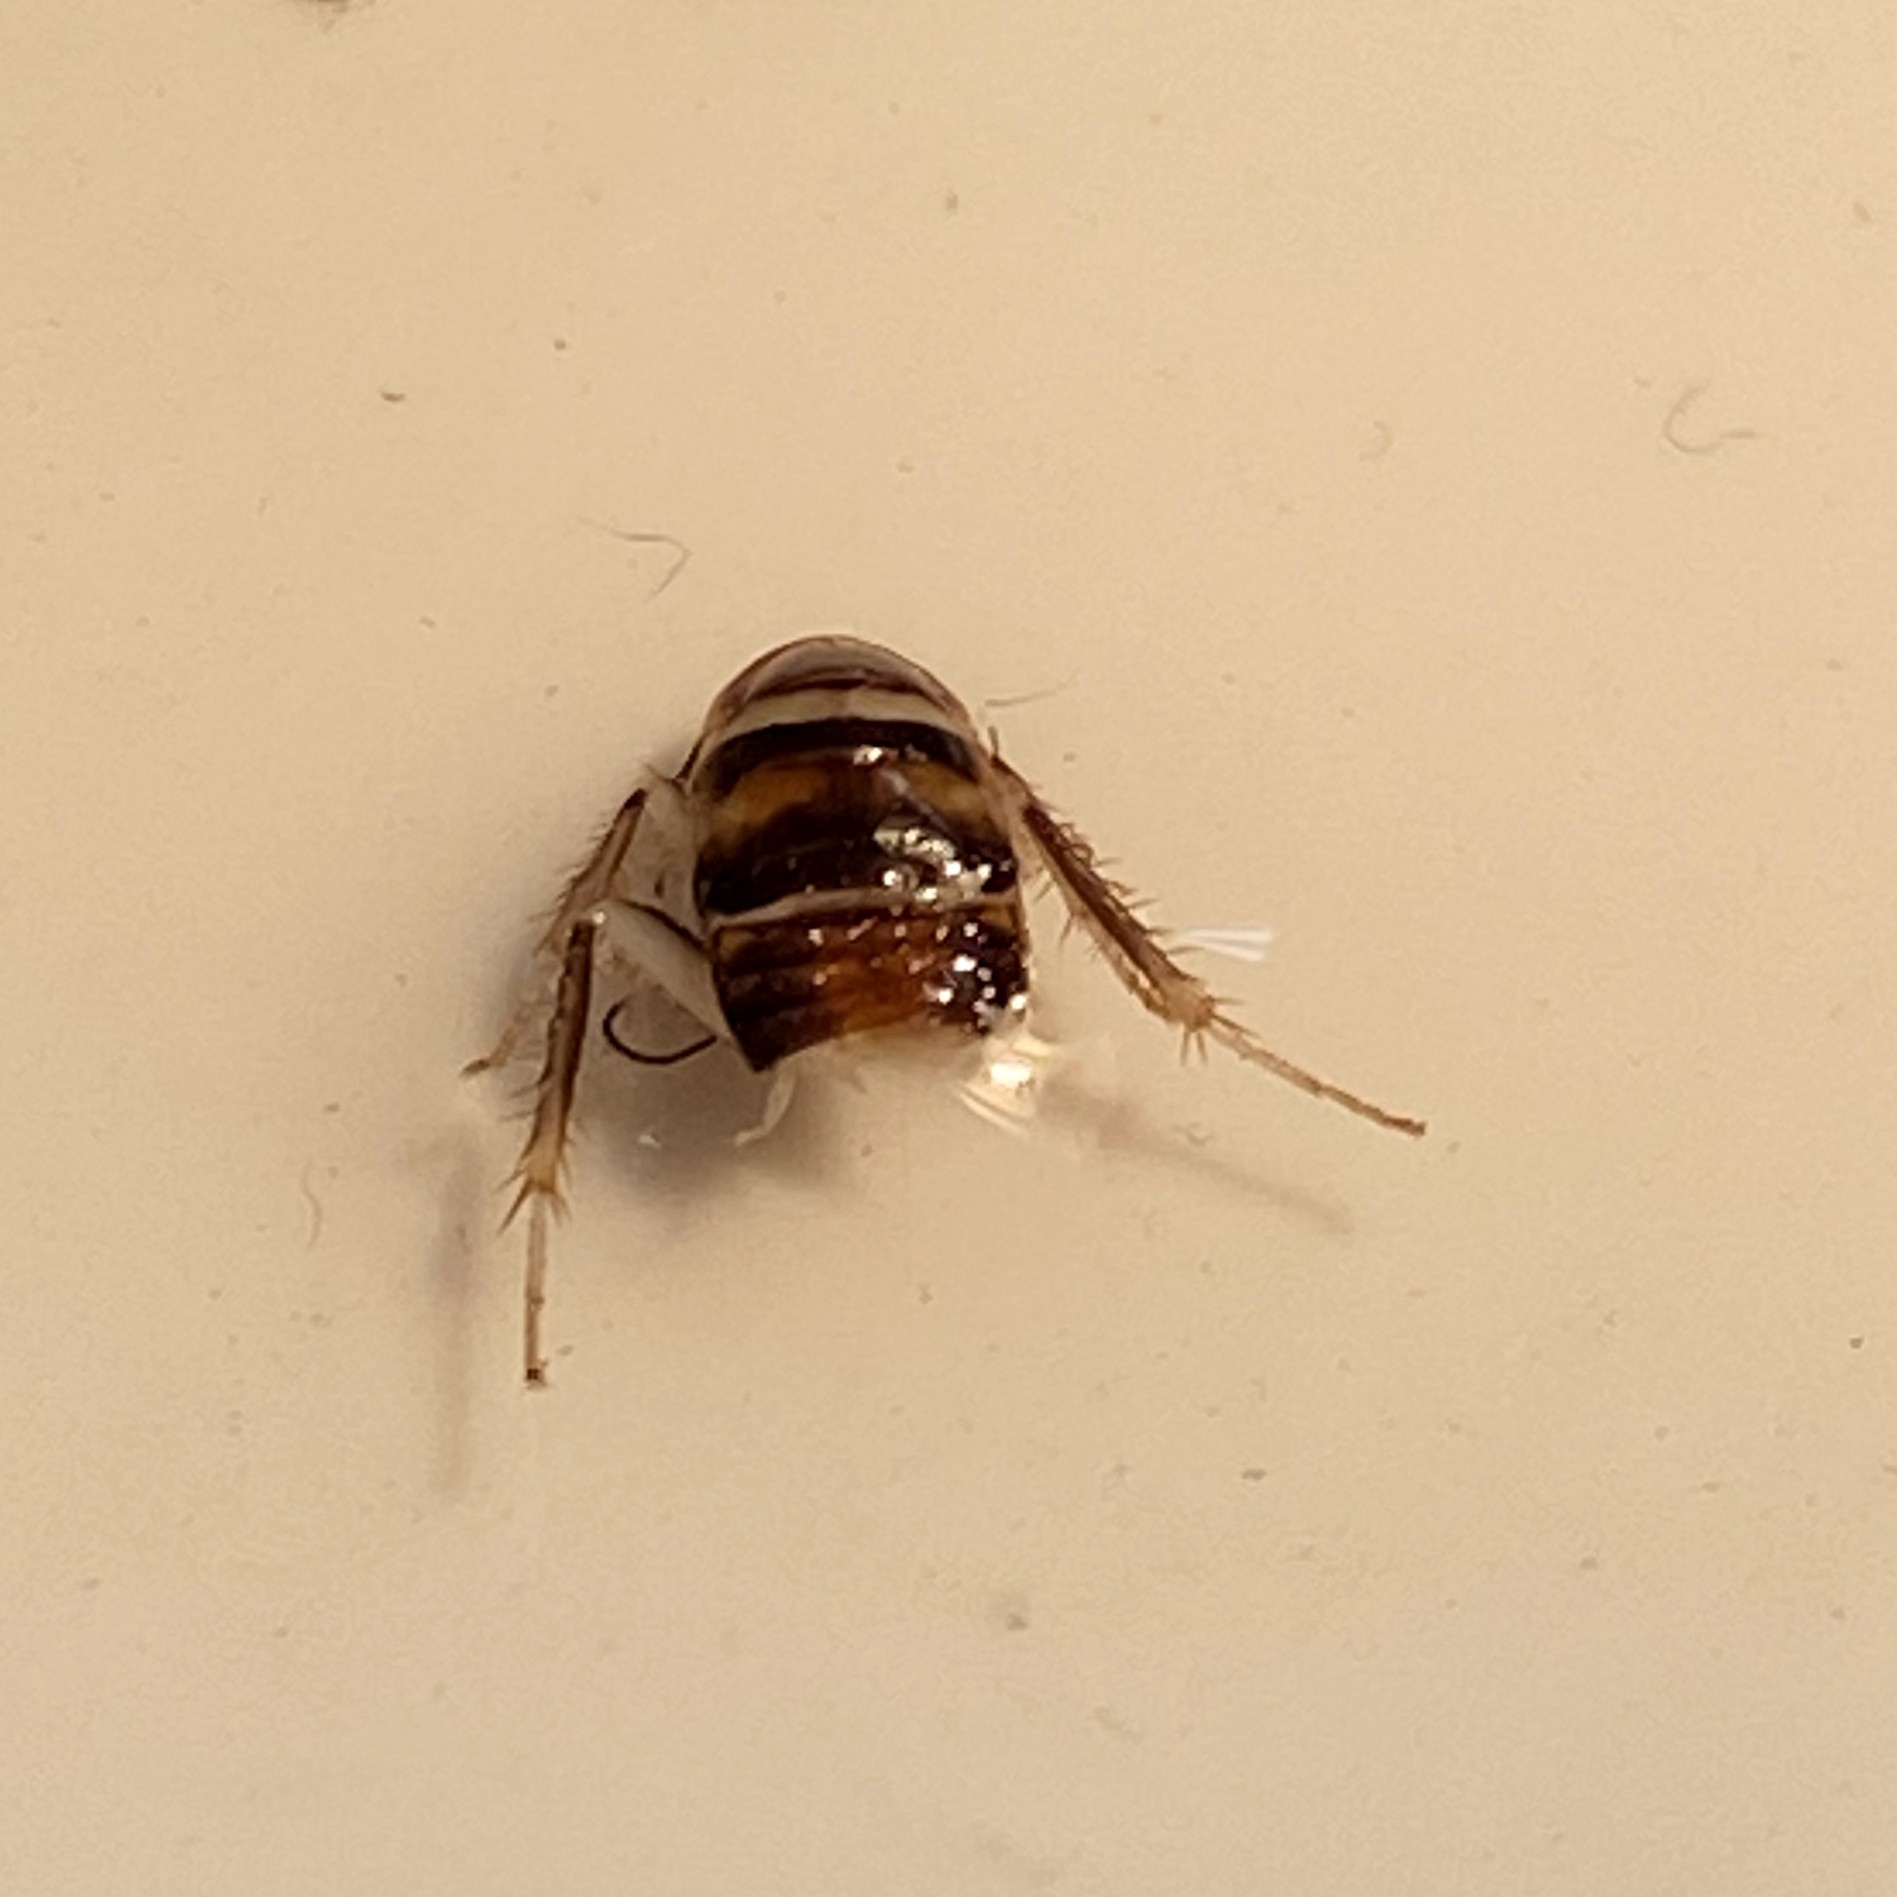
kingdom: Animalia
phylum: Arthropoda
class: Insecta
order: Blattodea
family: Ectobiidae
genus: Hemithyrsocera
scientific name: Hemithyrsocera silbergliedi
